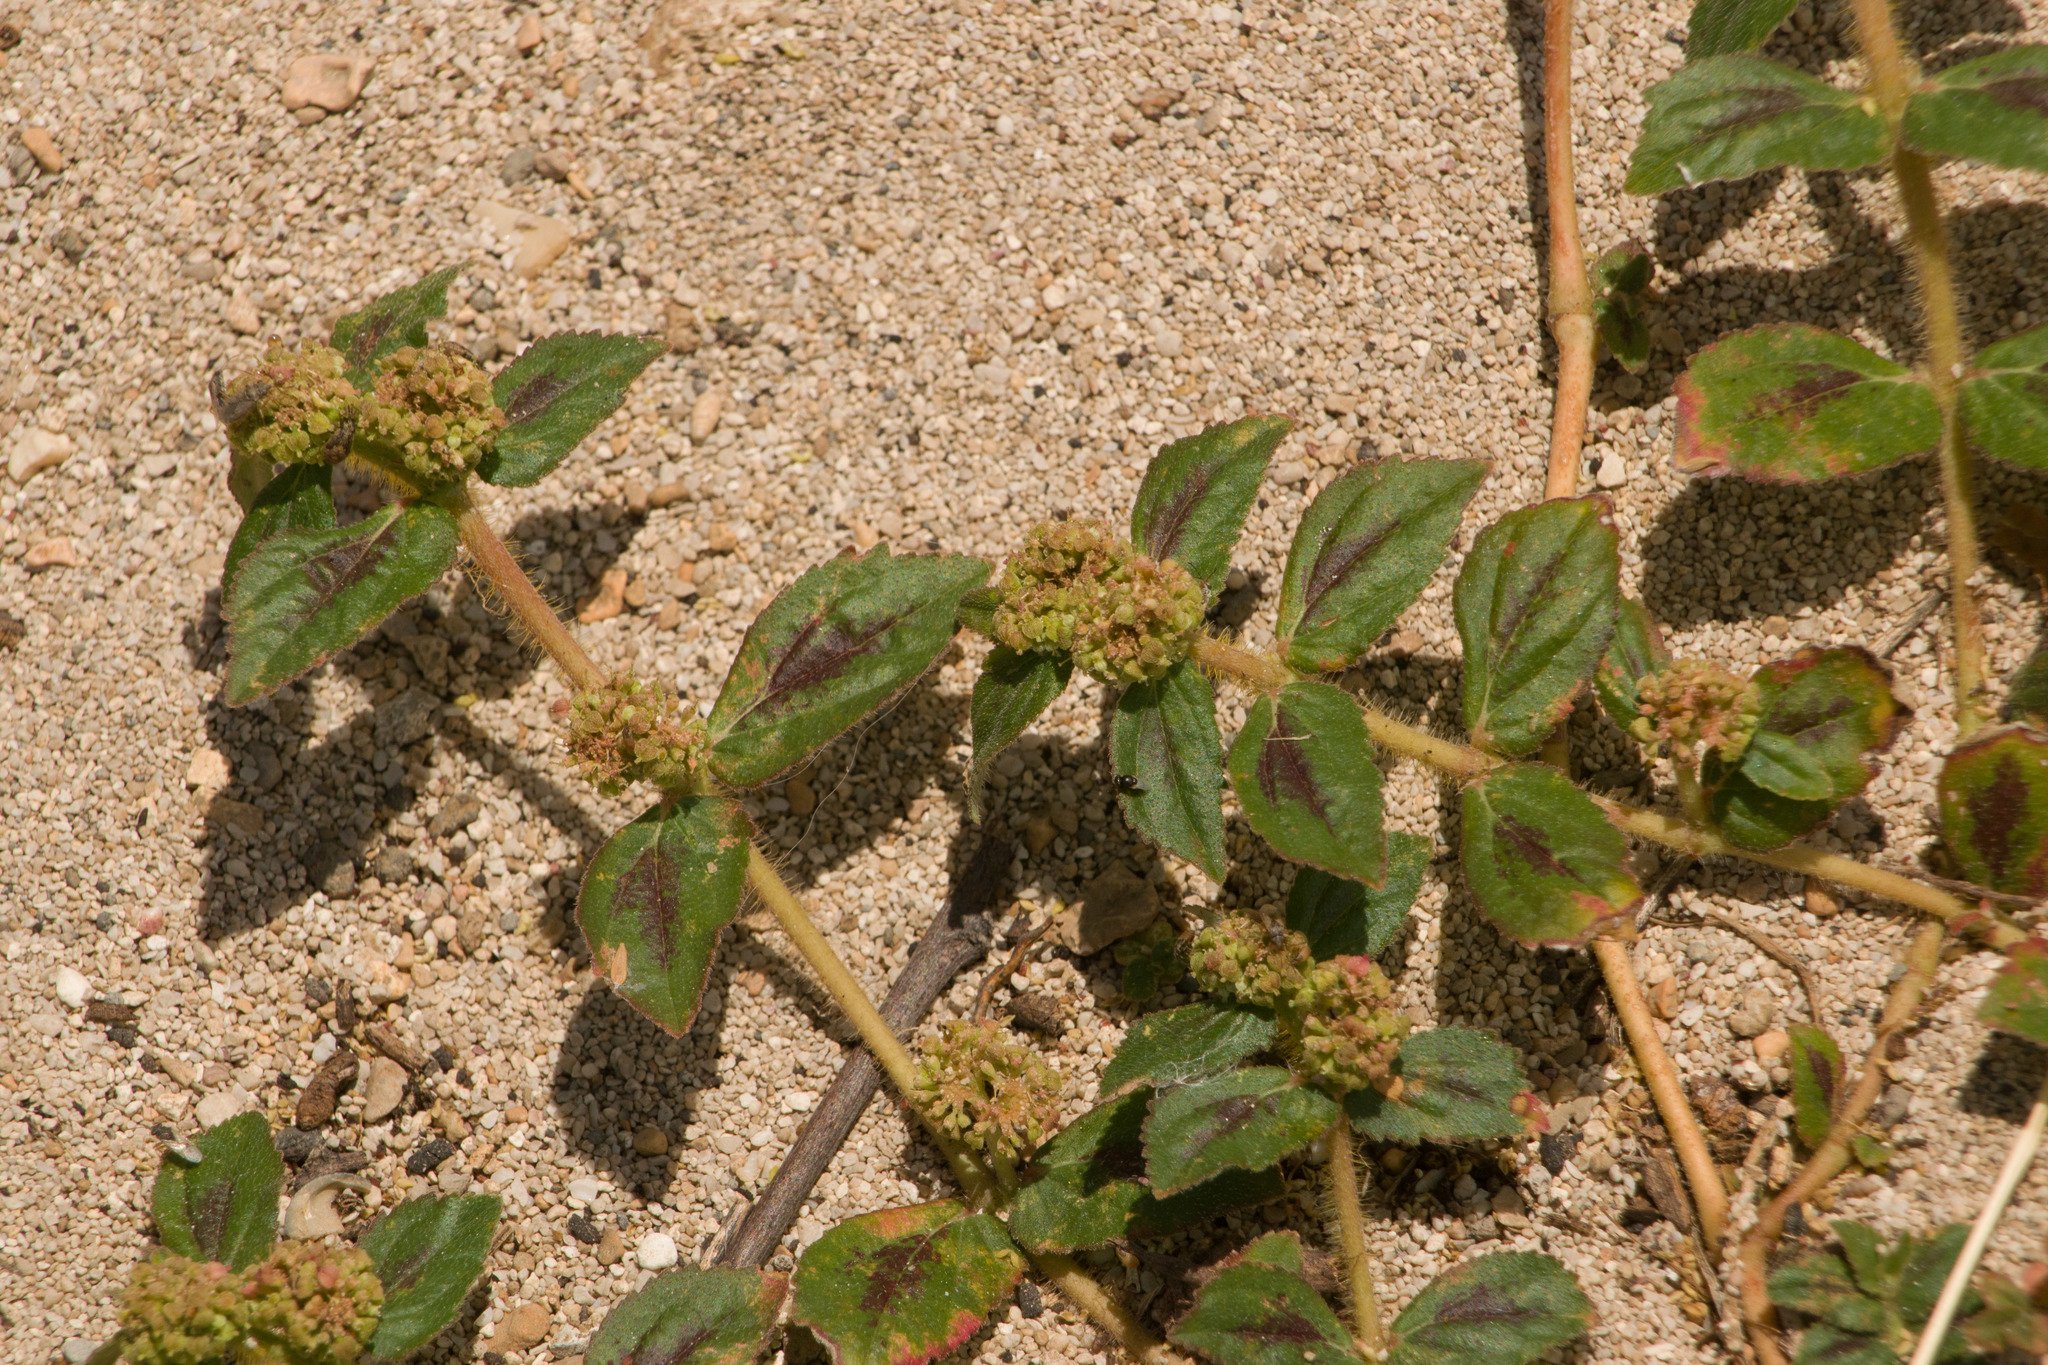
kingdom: Plantae
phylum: Tracheophyta
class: Magnoliopsida
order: Malpighiales
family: Euphorbiaceae
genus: Euphorbia
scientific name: Euphorbia hirta
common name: Pillpod sandmat
